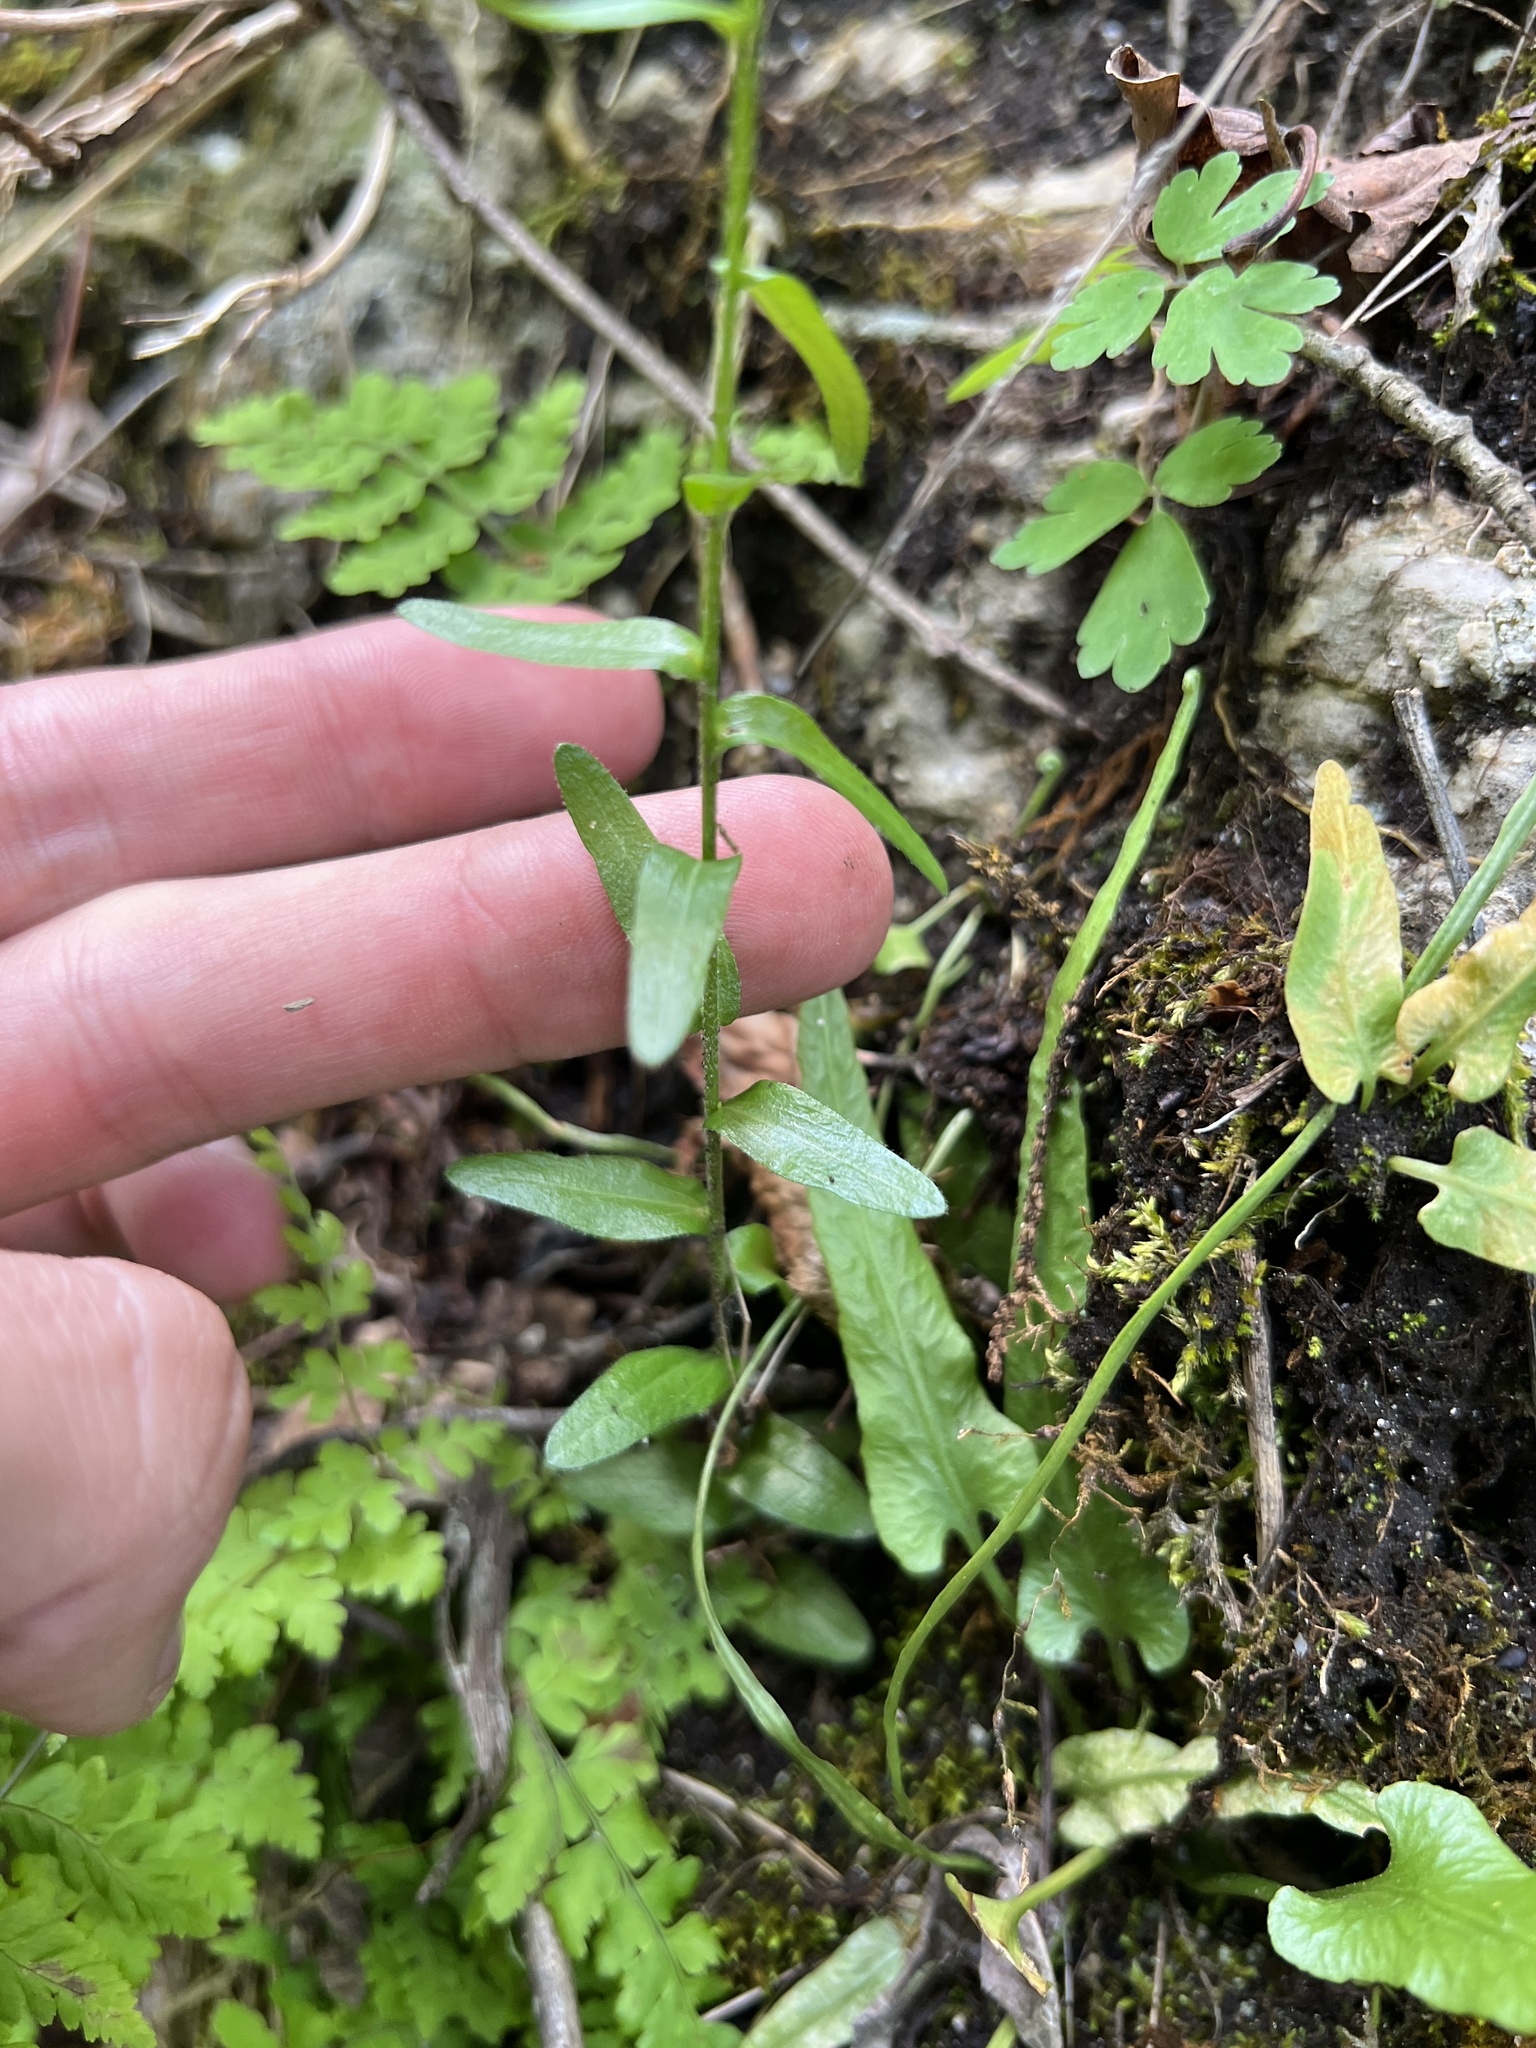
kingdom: Plantae
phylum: Tracheophyta
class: Magnoliopsida
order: Brassicales
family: Brassicaceae
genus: Arabis
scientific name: Arabis pycnocarpa
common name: Blushing rockcress
